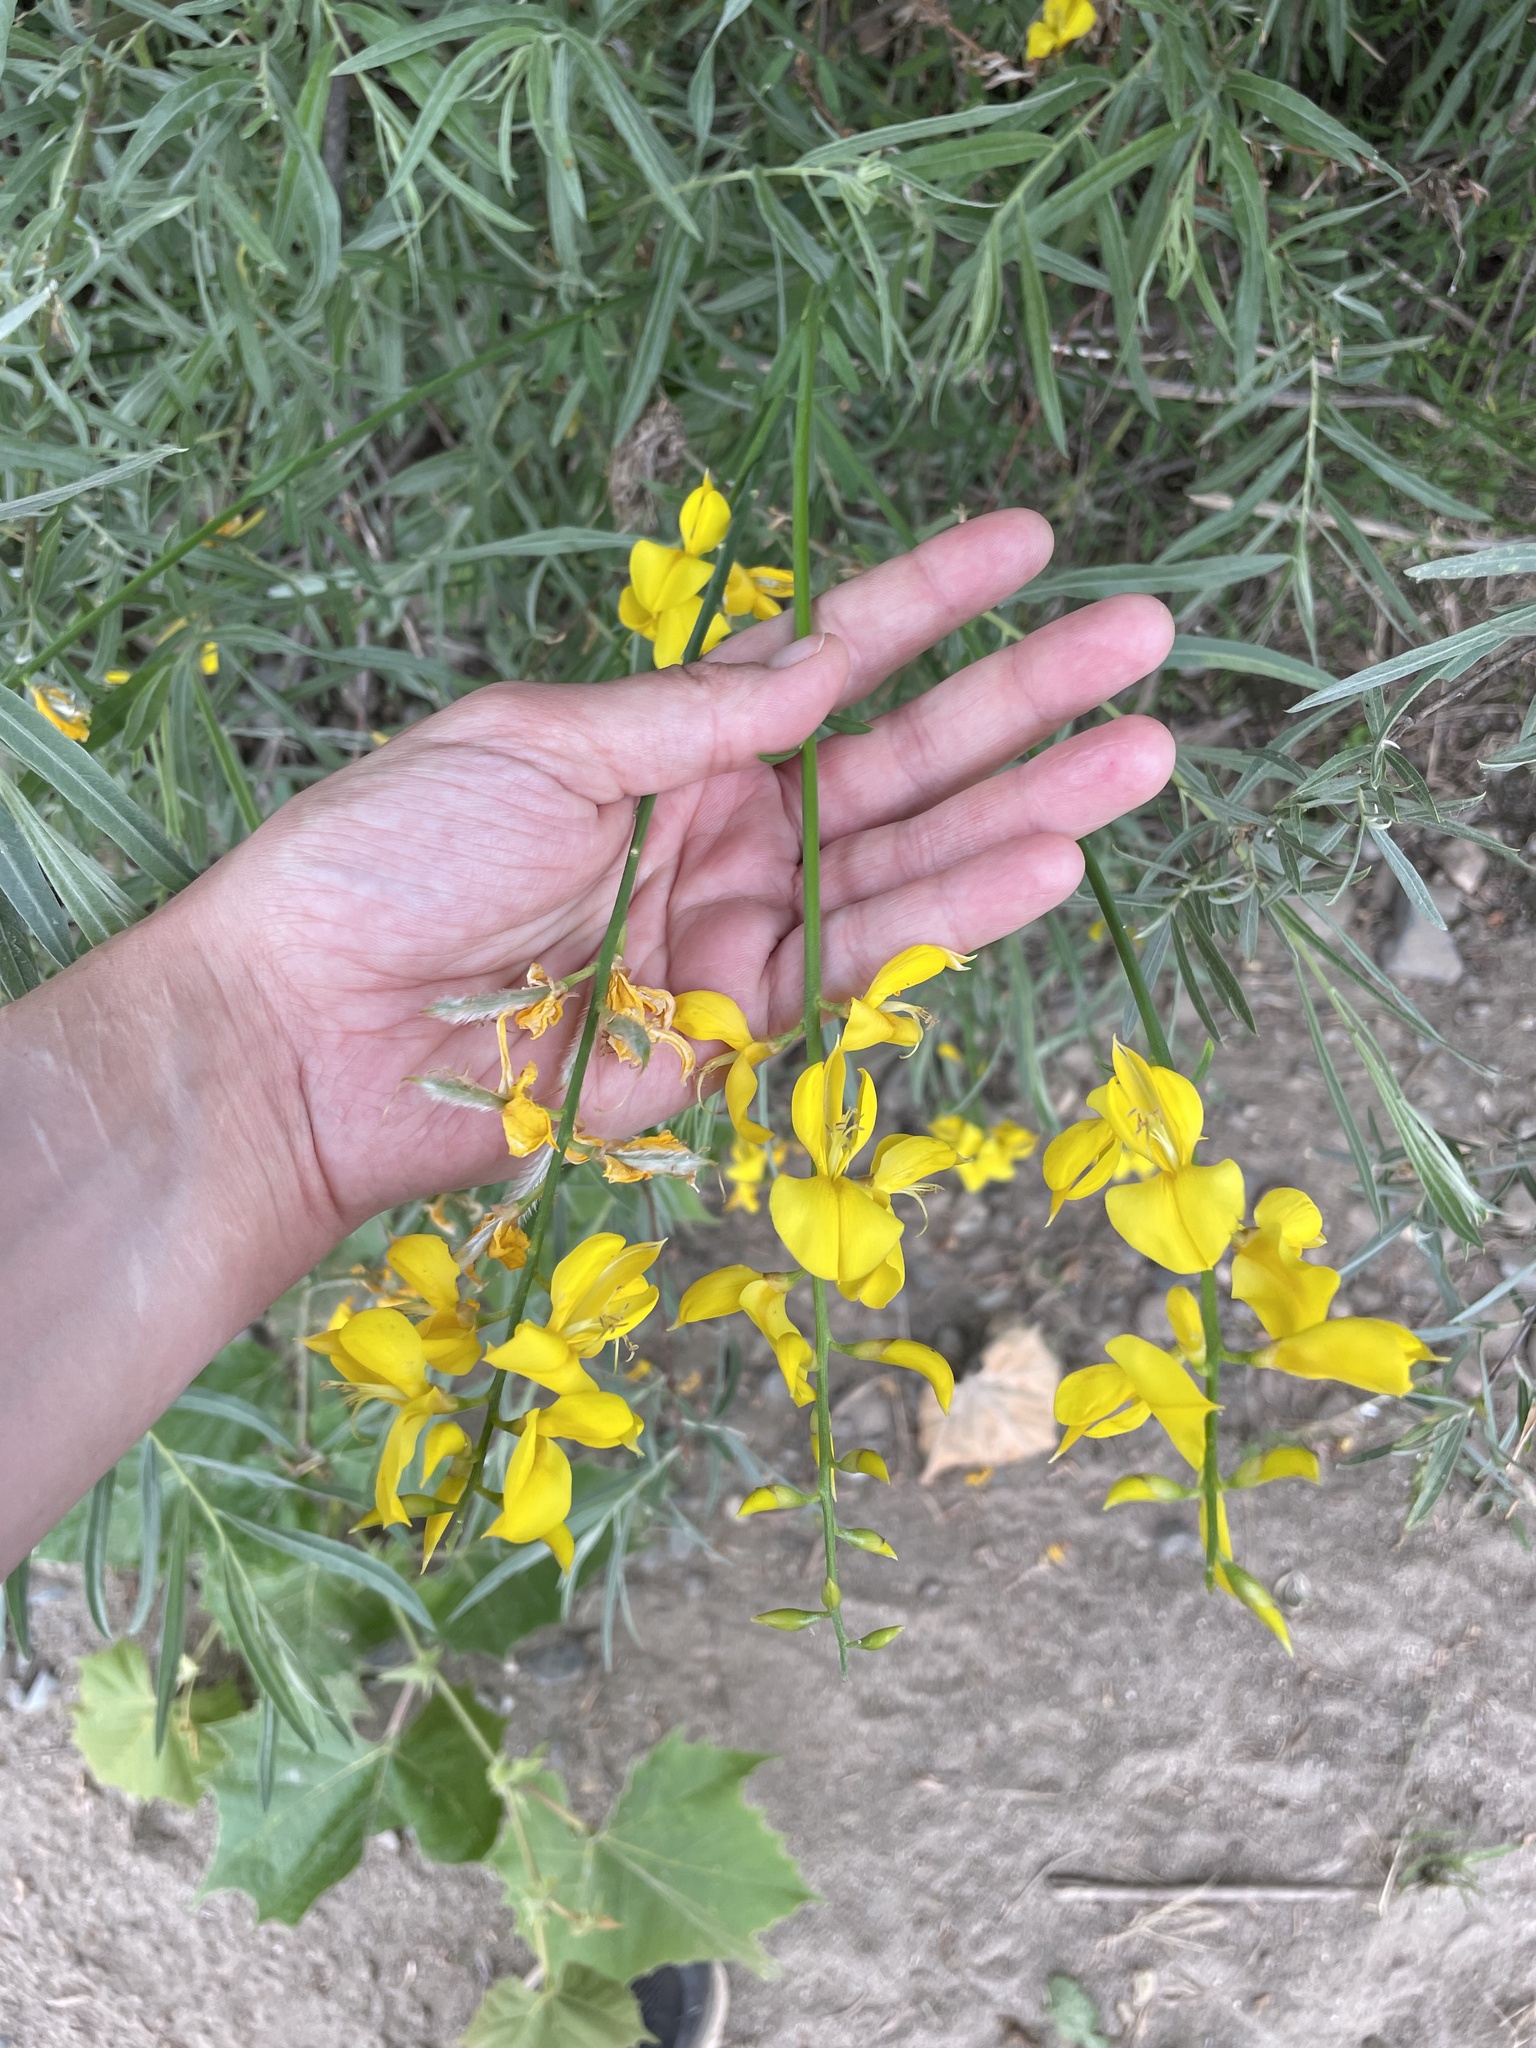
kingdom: Plantae
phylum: Tracheophyta
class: Magnoliopsida
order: Fabales
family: Fabaceae
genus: Spartium
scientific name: Spartium junceum
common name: Spanish broom
